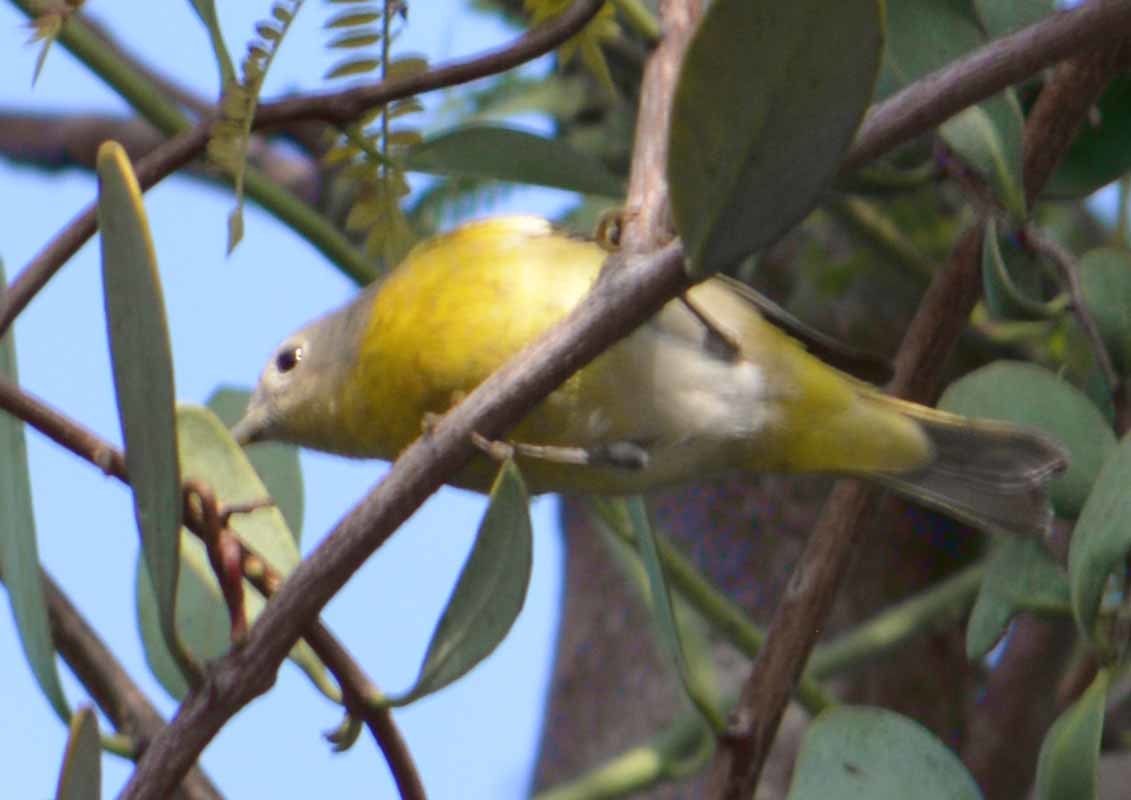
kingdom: Animalia
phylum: Chordata
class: Aves
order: Passeriformes
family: Parulidae
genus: Leiothlypis
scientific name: Leiothlypis ruficapilla
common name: Nashville warbler
